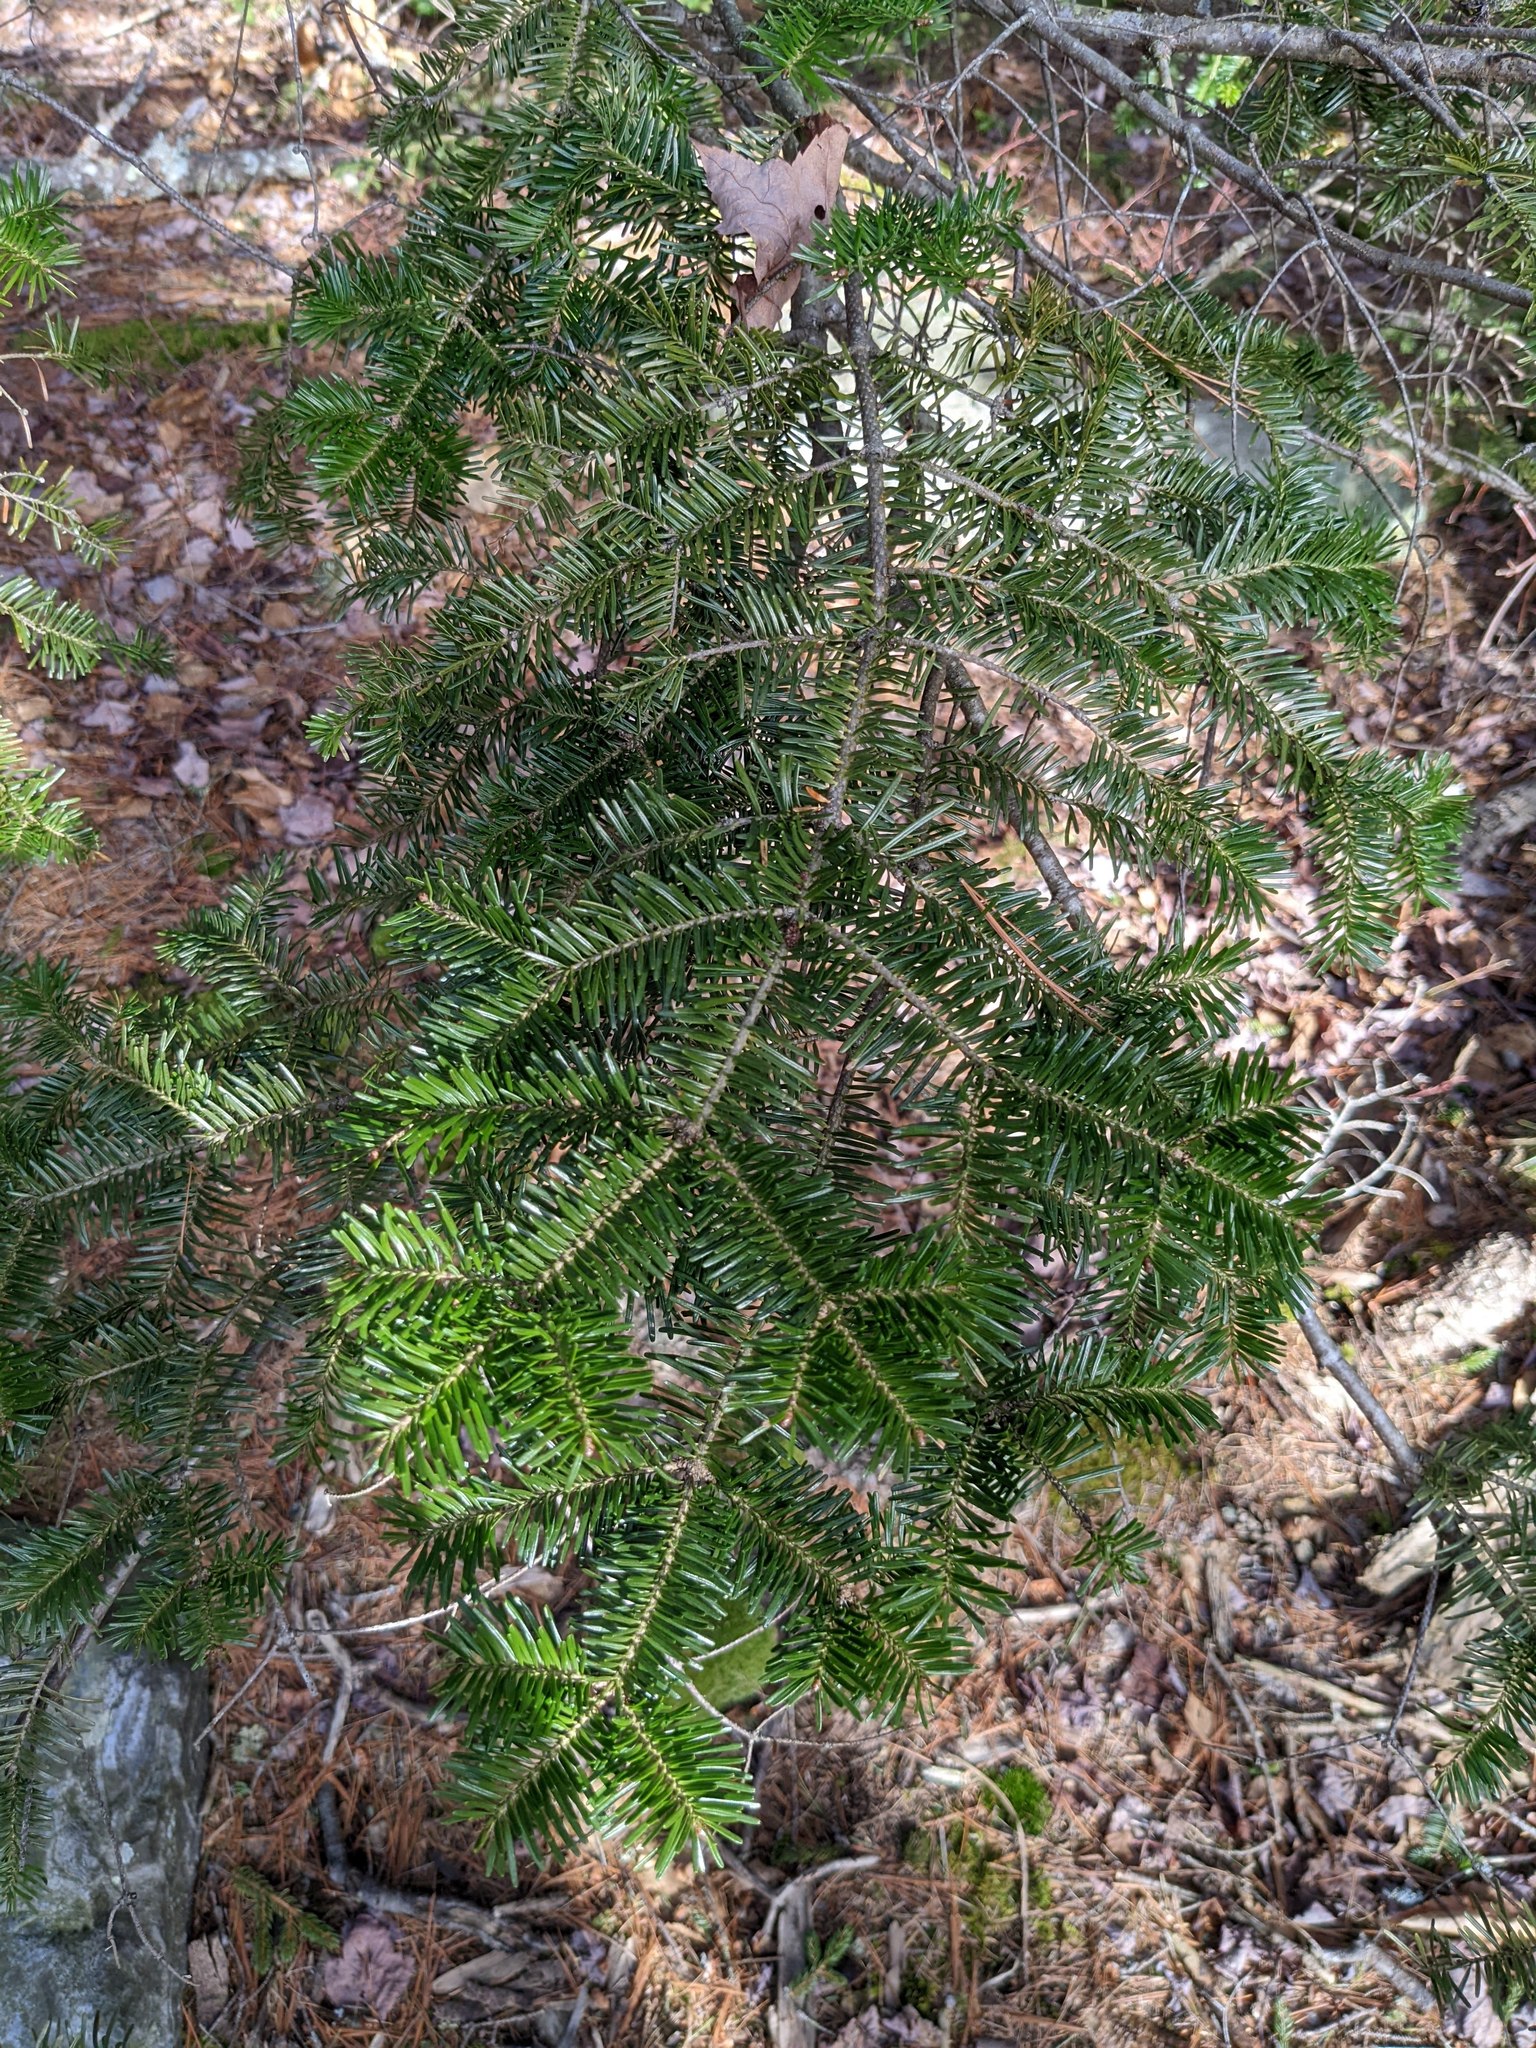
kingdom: Plantae
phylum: Tracheophyta
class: Pinopsida
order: Pinales
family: Pinaceae
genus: Abies
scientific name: Abies balsamea
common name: Balsam fir
